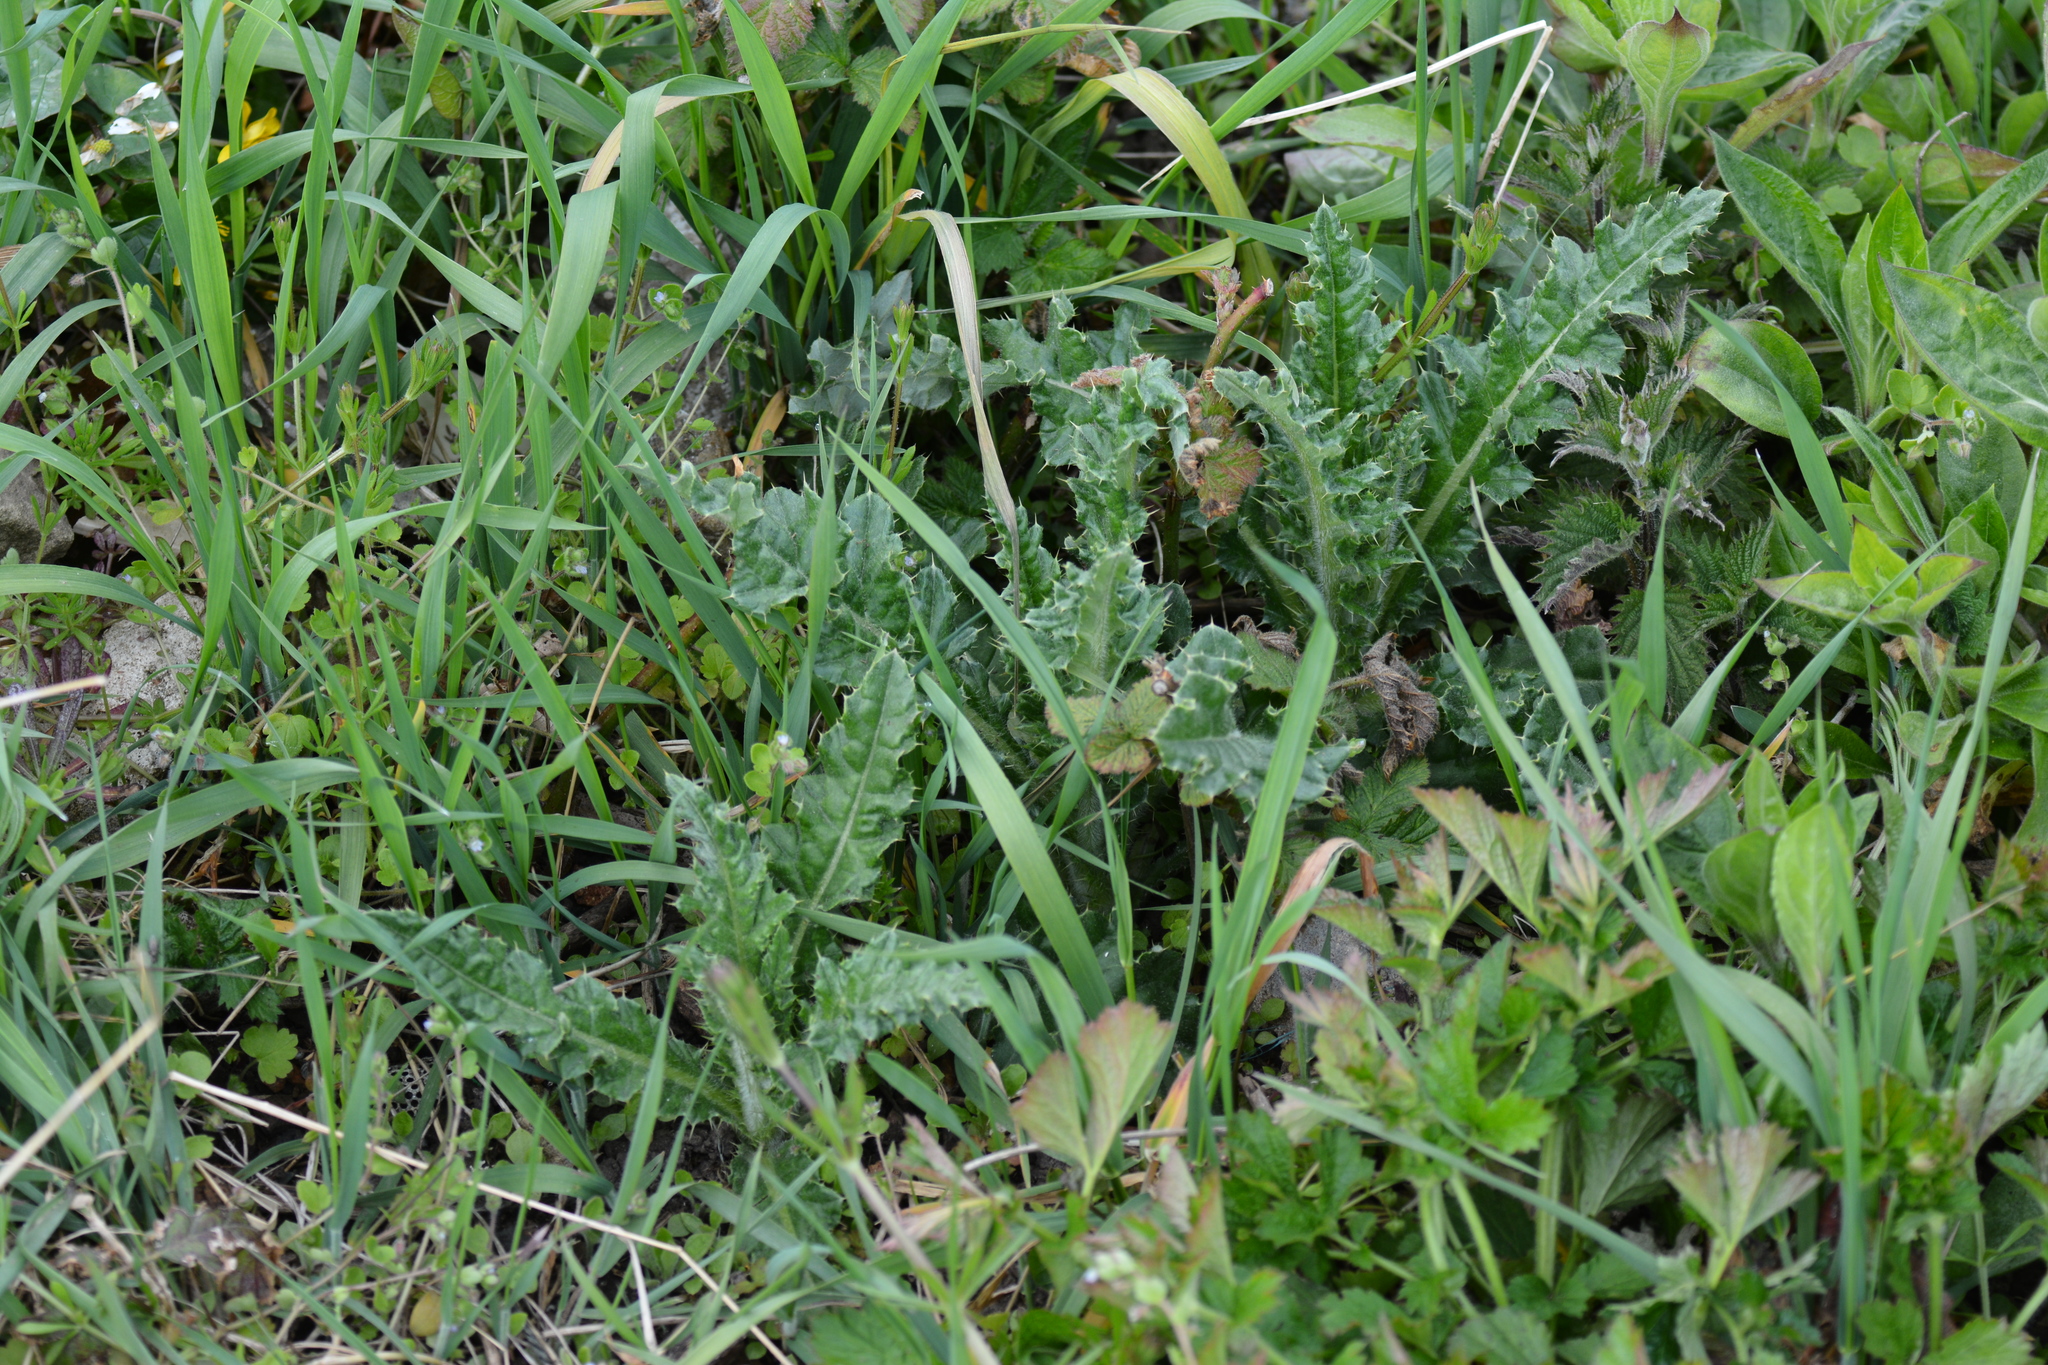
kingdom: Plantae
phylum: Tracheophyta
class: Magnoliopsida
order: Asterales
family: Asteraceae
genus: Cirsium
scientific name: Cirsium arvense
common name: Creeping thistle
